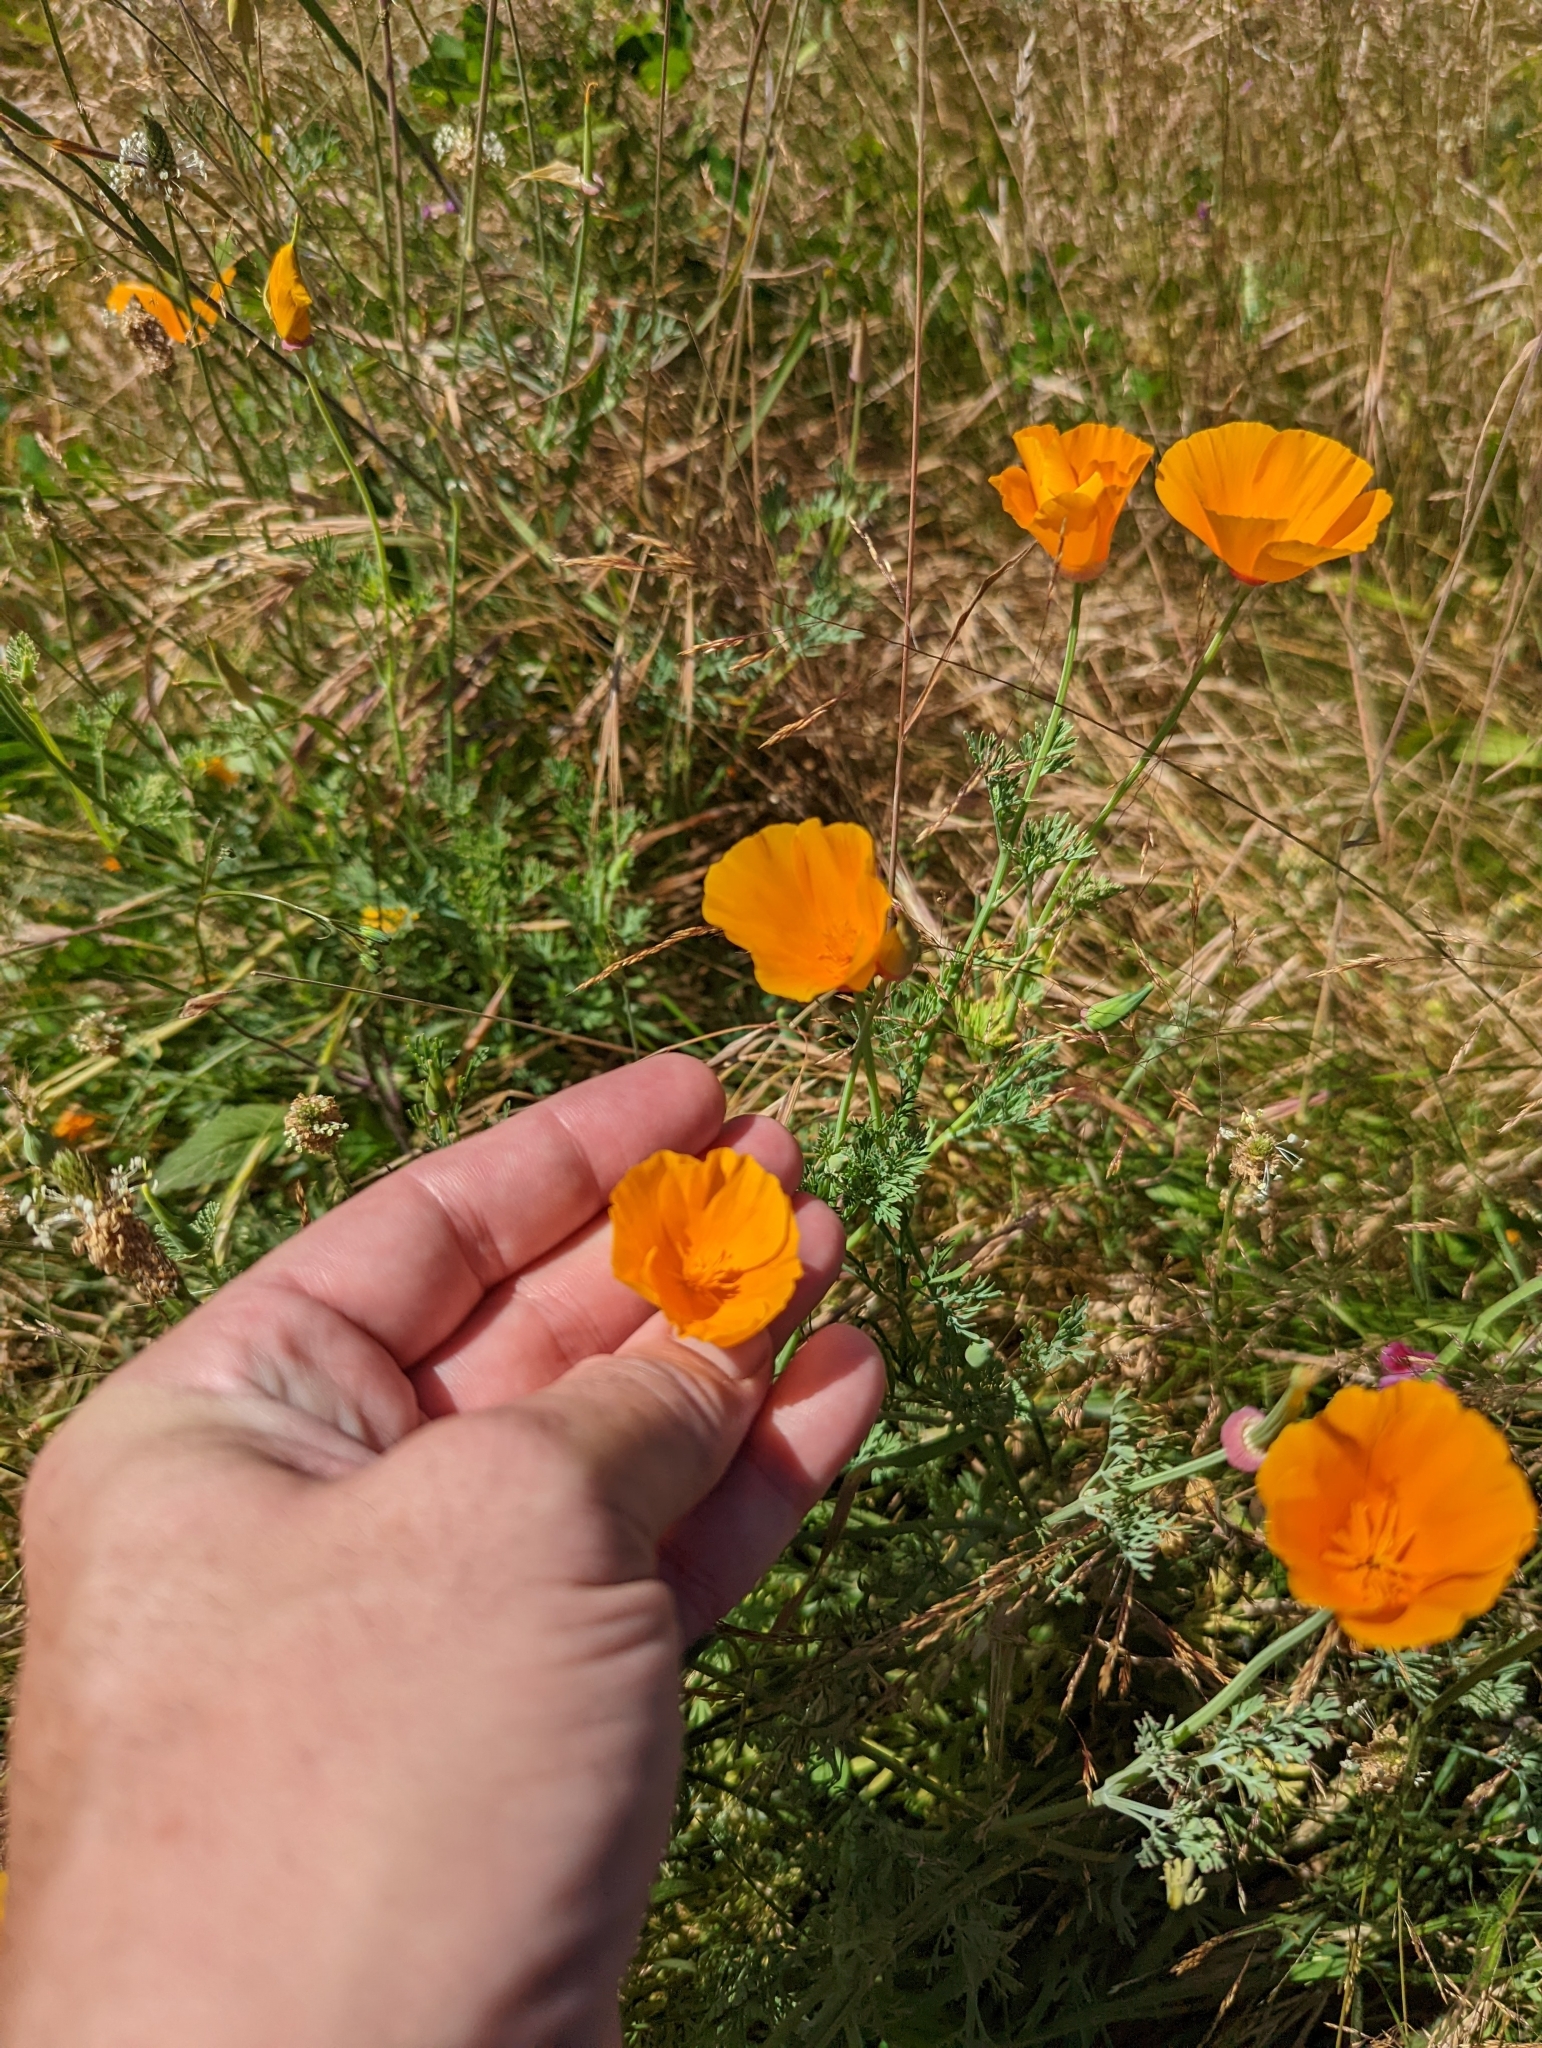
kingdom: Plantae
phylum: Tracheophyta
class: Magnoliopsida
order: Ranunculales
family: Papaveraceae
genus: Eschscholzia
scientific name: Eschscholzia californica
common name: California poppy
